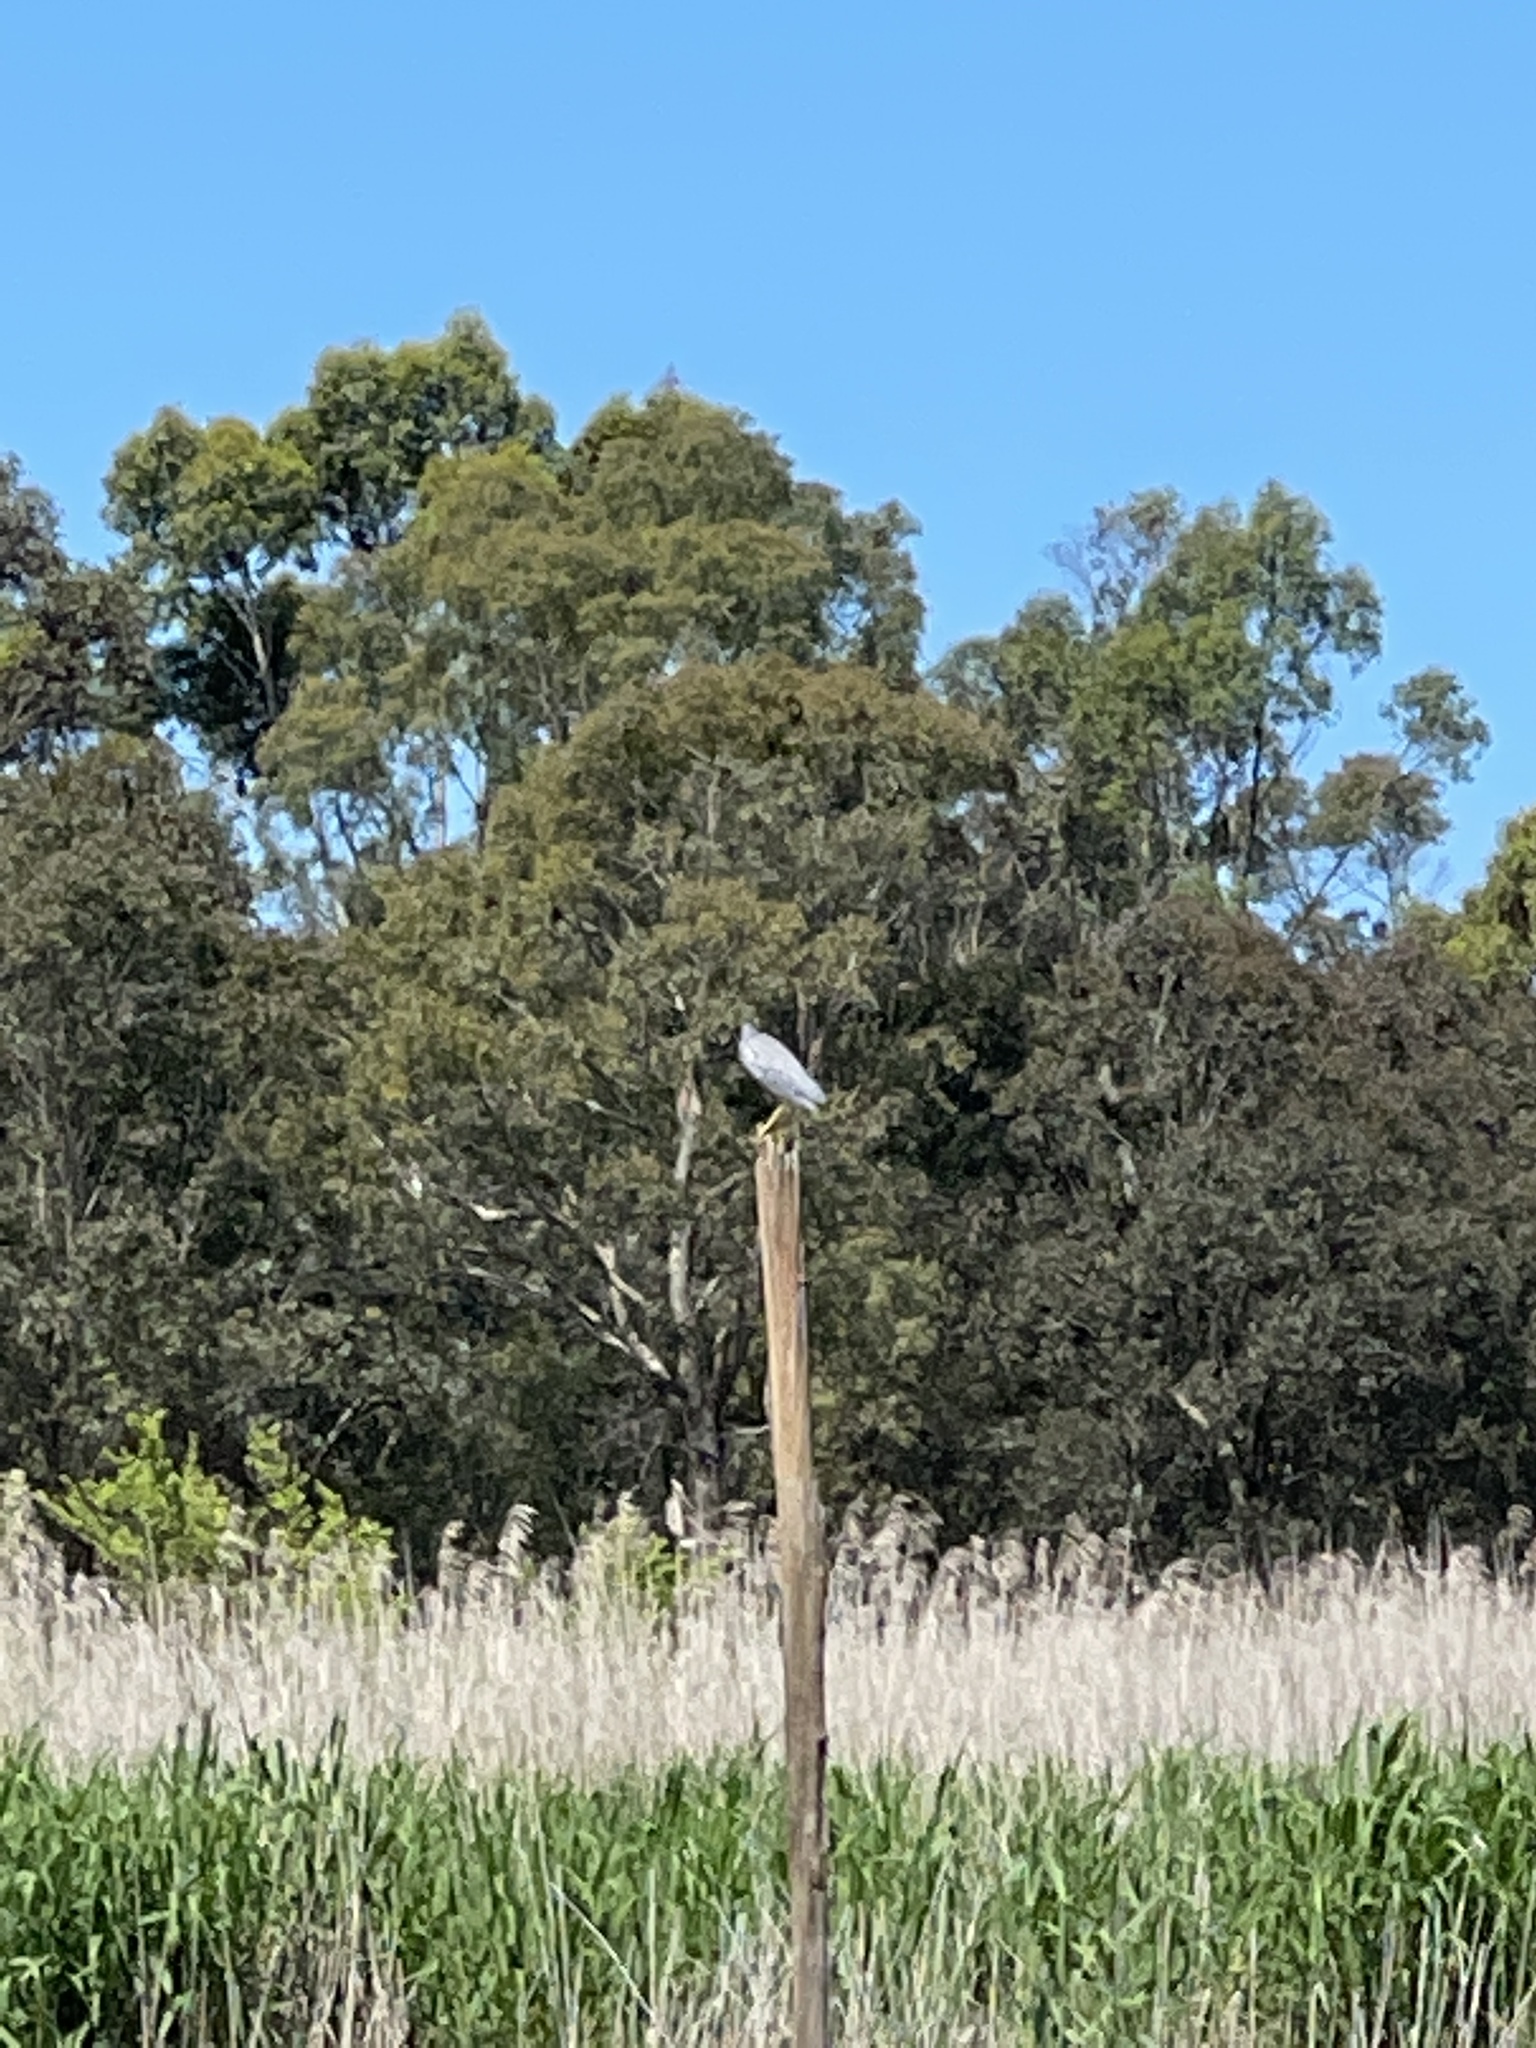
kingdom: Animalia
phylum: Chordata
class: Aves
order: Pelecaniformes
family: Ardeidae
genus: Egretta
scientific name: Egretta novaehollandiae
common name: White-faced heron
